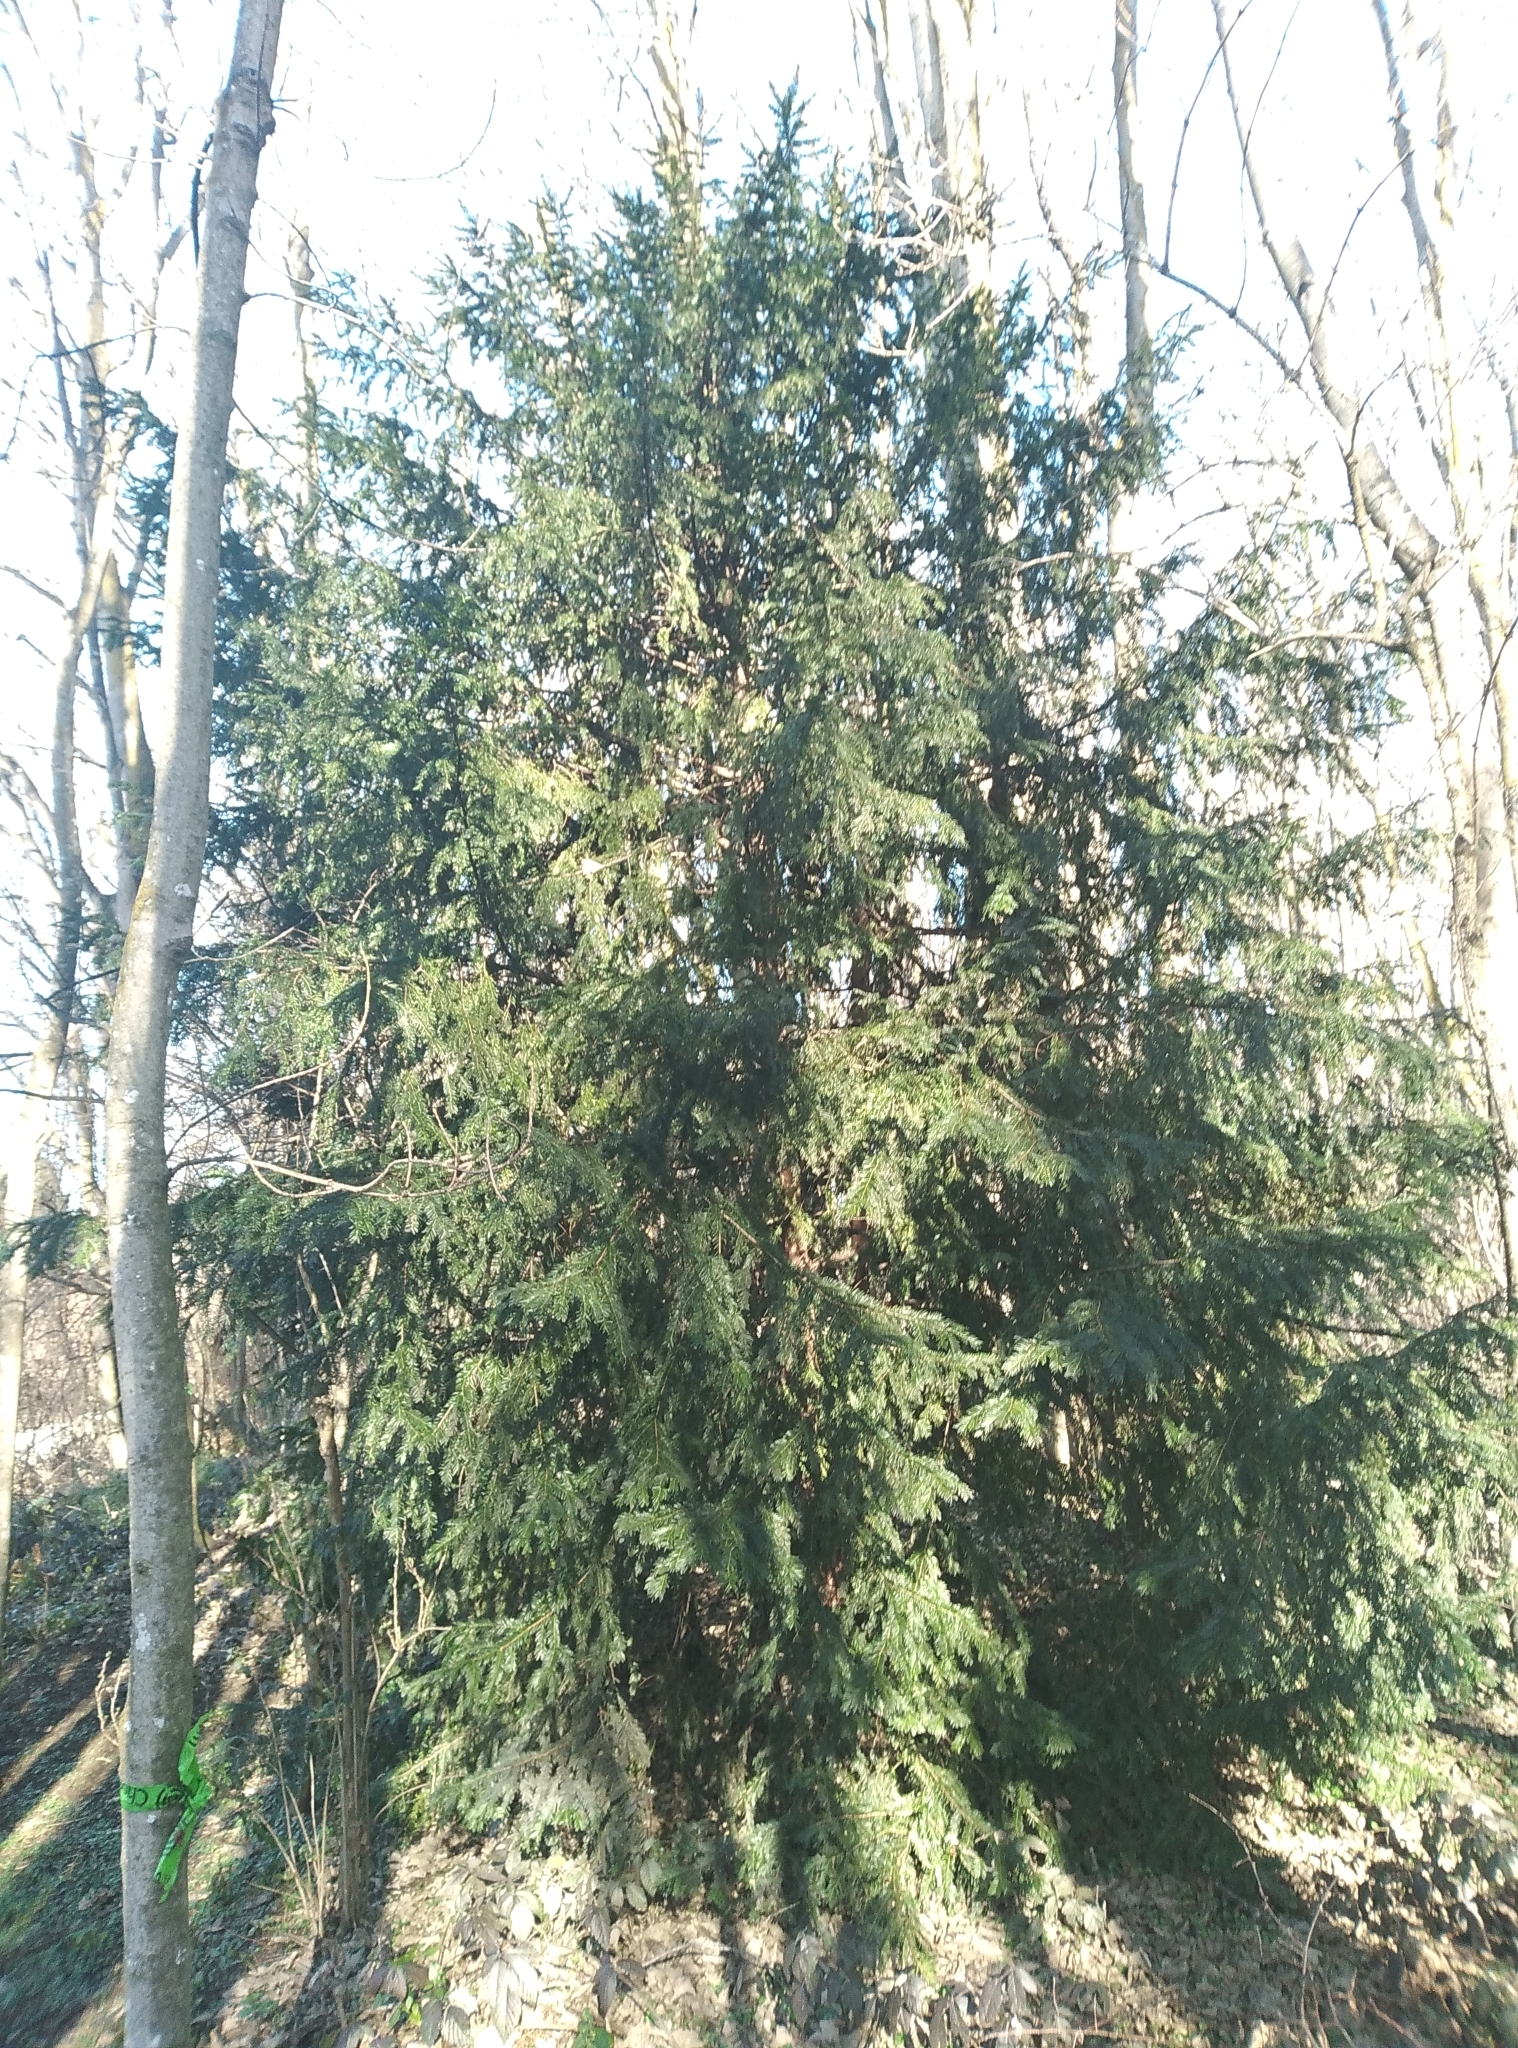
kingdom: Plantae
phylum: Tracheophyta
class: Pinopsida
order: Pinales
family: Taxaceae
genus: Taxus
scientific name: Taxus baccata
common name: Yew
